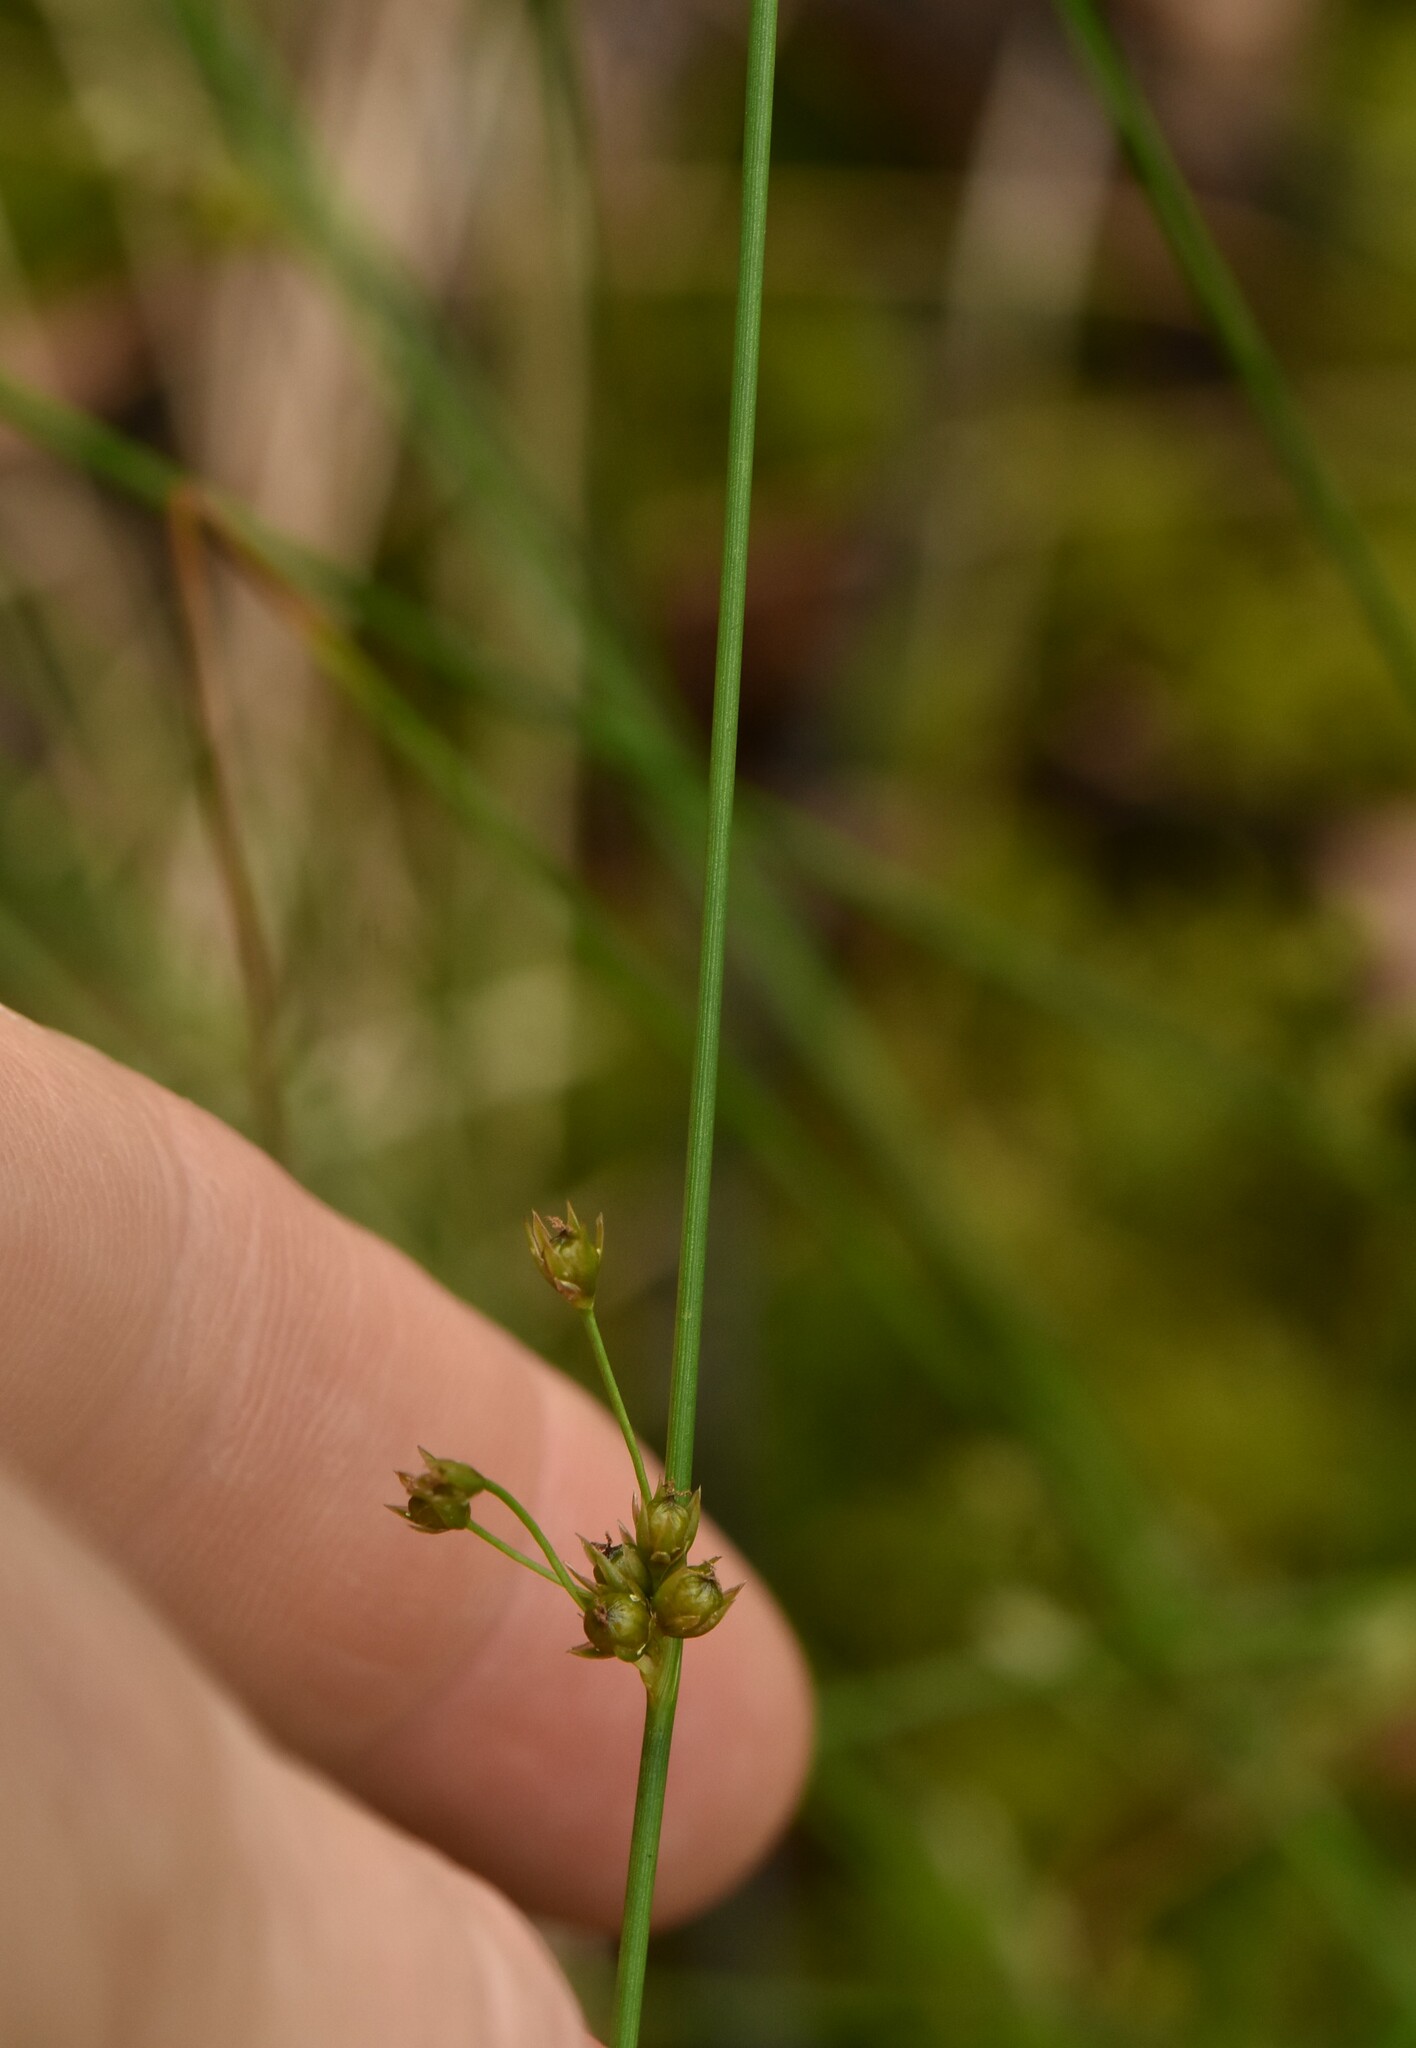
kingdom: Plantae
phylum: Tracheophyta
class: Liliopsida
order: Poales
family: Juncaceae
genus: Juncus
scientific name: Juncus filiformis
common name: Thread rush
